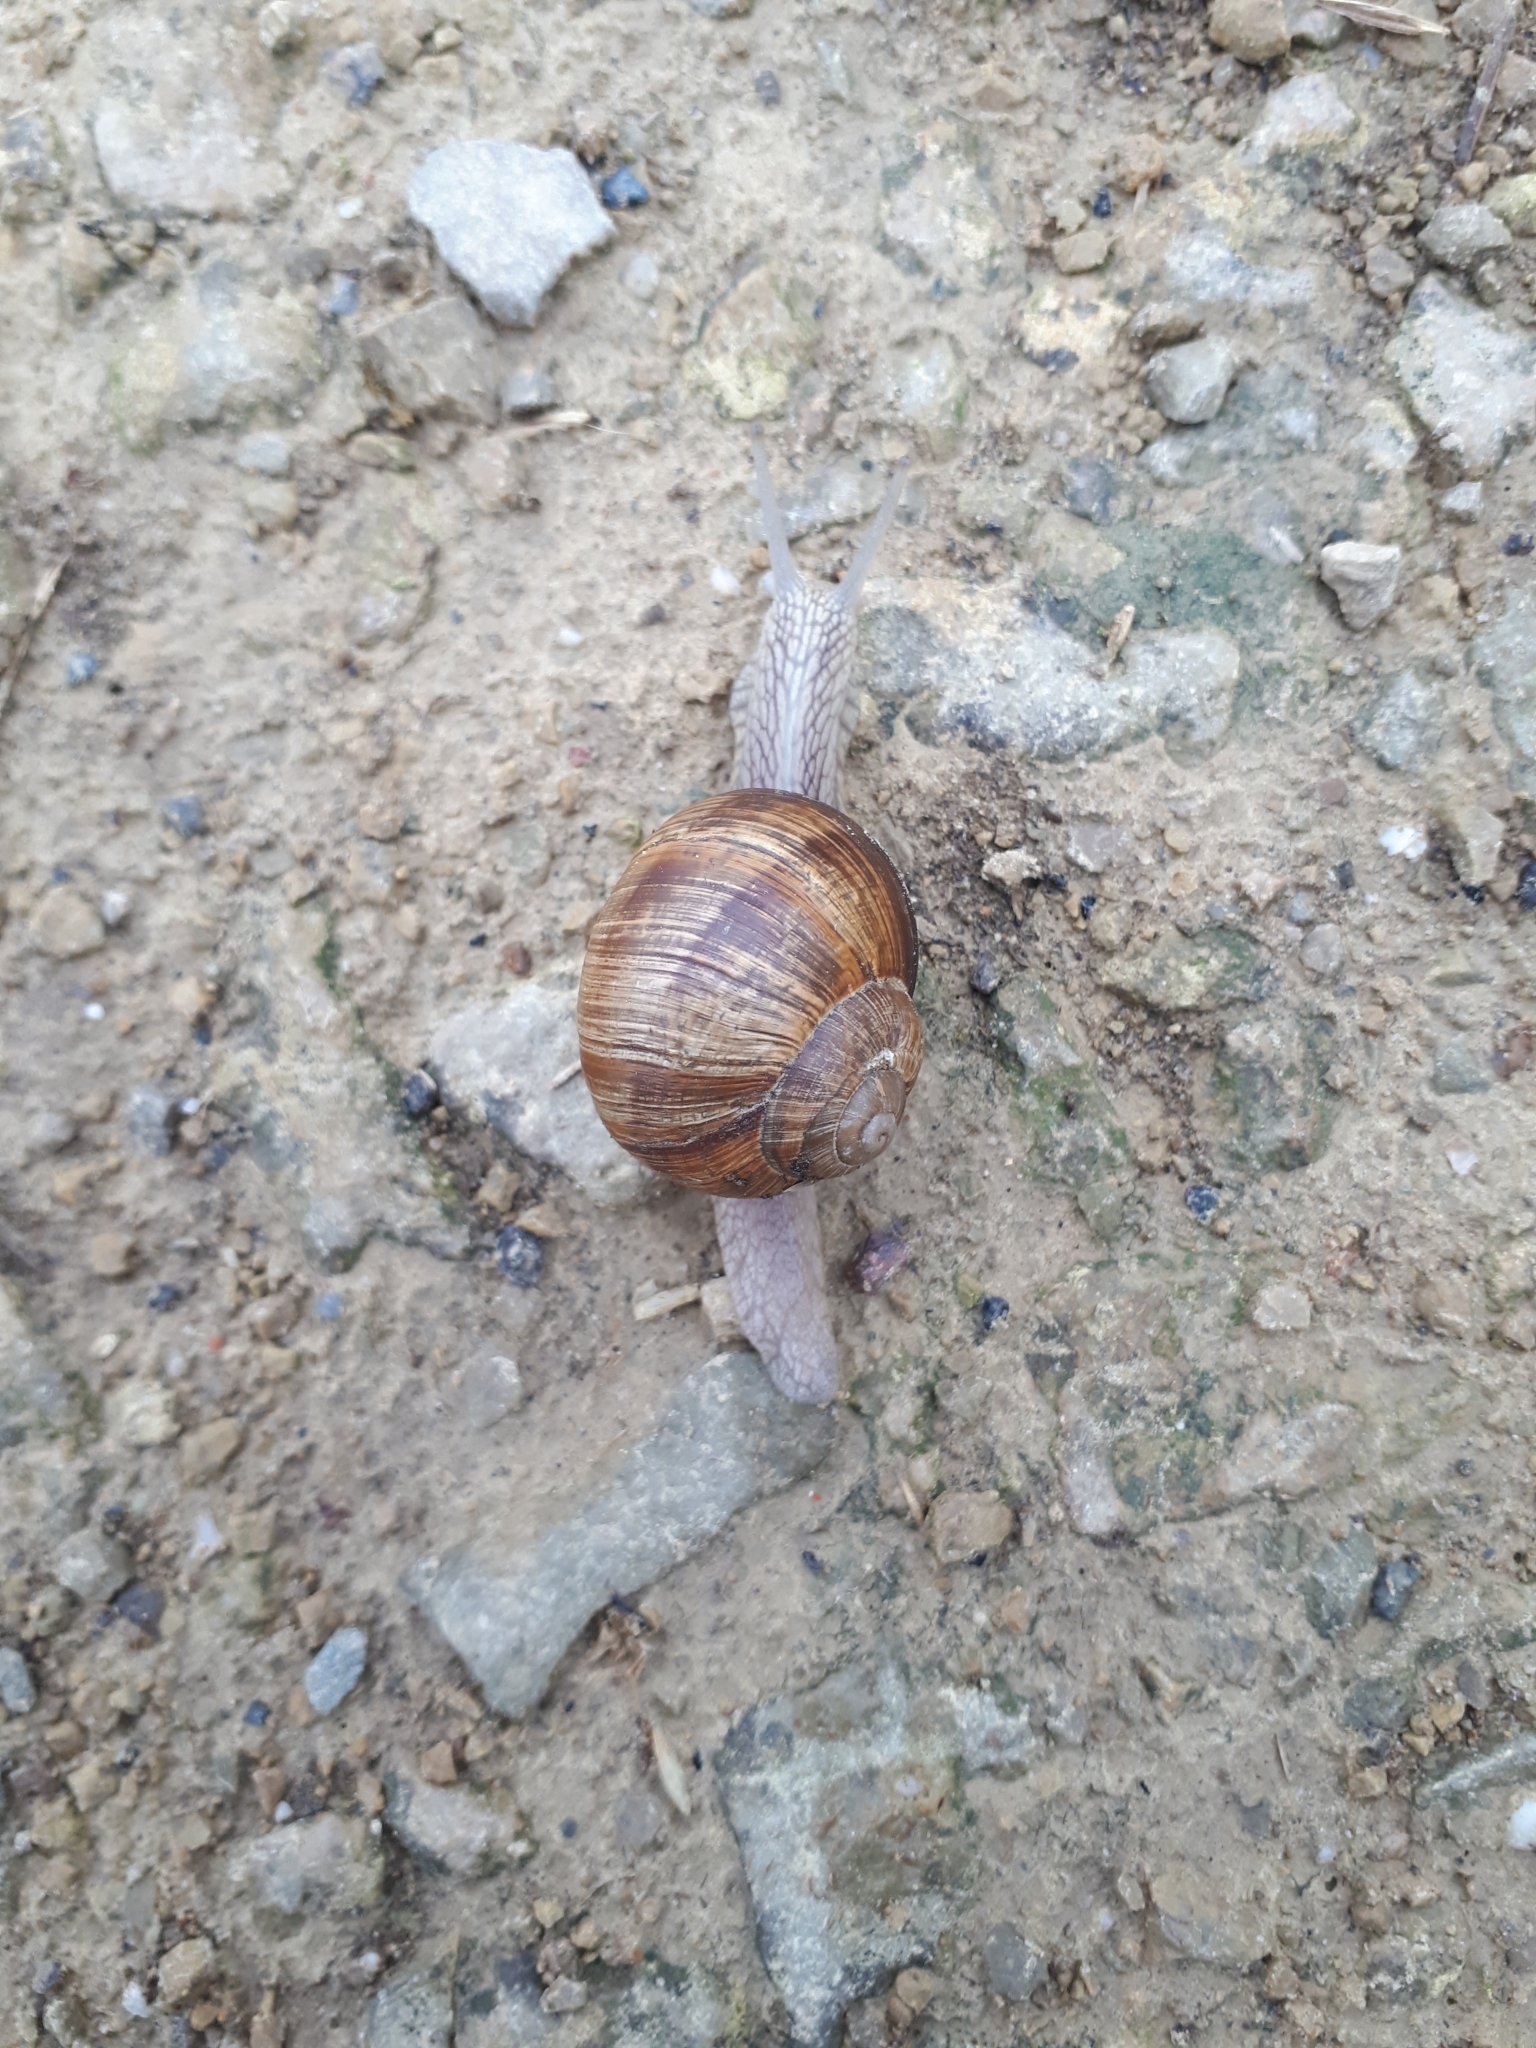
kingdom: Animalia
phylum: Mollusca
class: Gastropoda
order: Stylommatophora
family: Helicidae
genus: Helix
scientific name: Helix pomatia
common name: Roman snail
